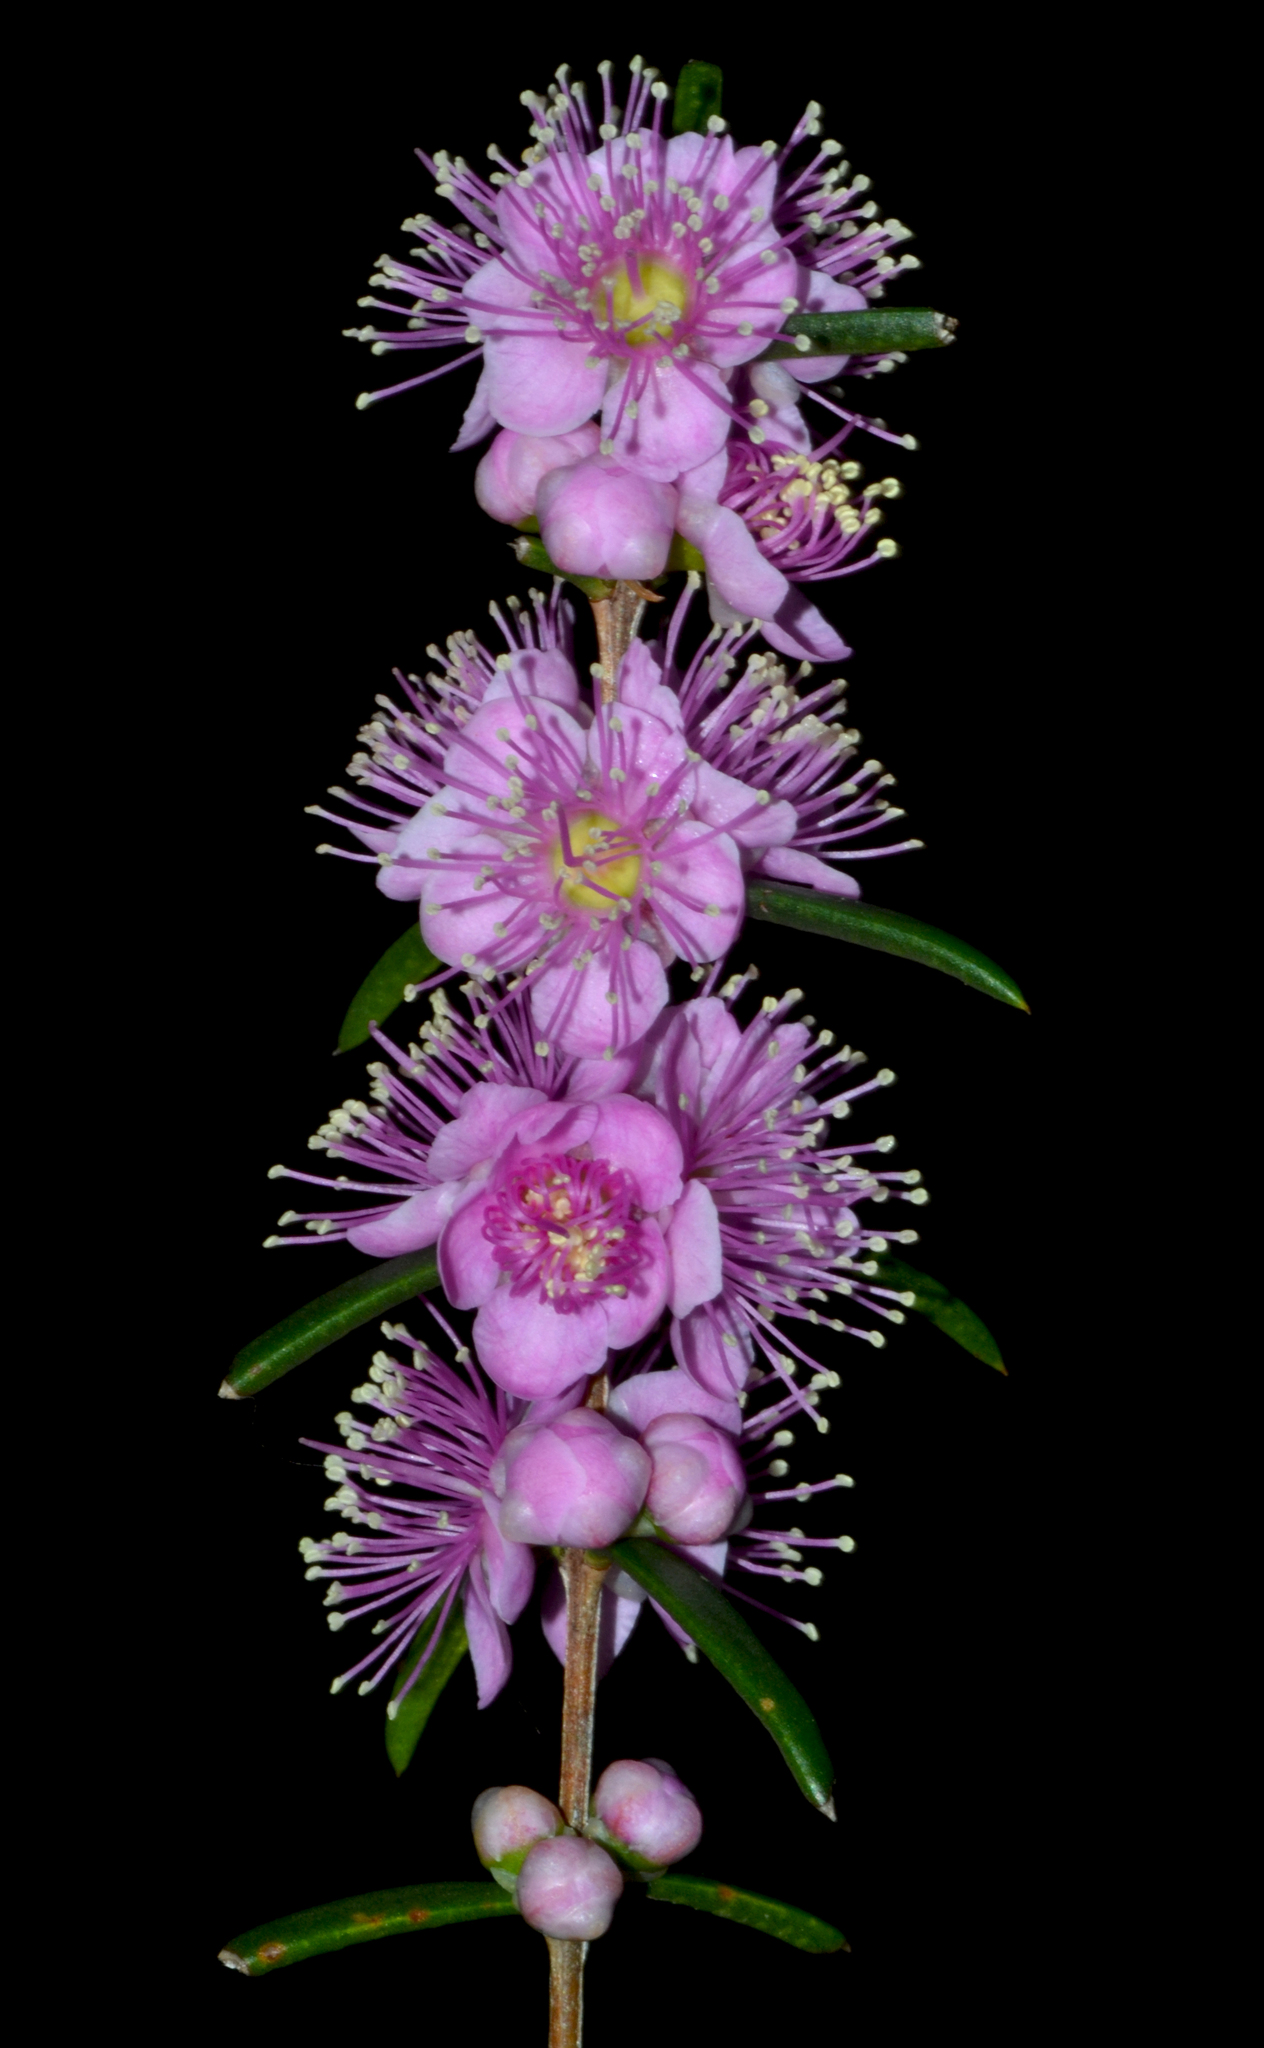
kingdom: Plantae
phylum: Tracheophyta
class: Magnoliopsida
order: Myrtales
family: Myrtaceae
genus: Hypocalymma
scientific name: Hypocalymma robustum
